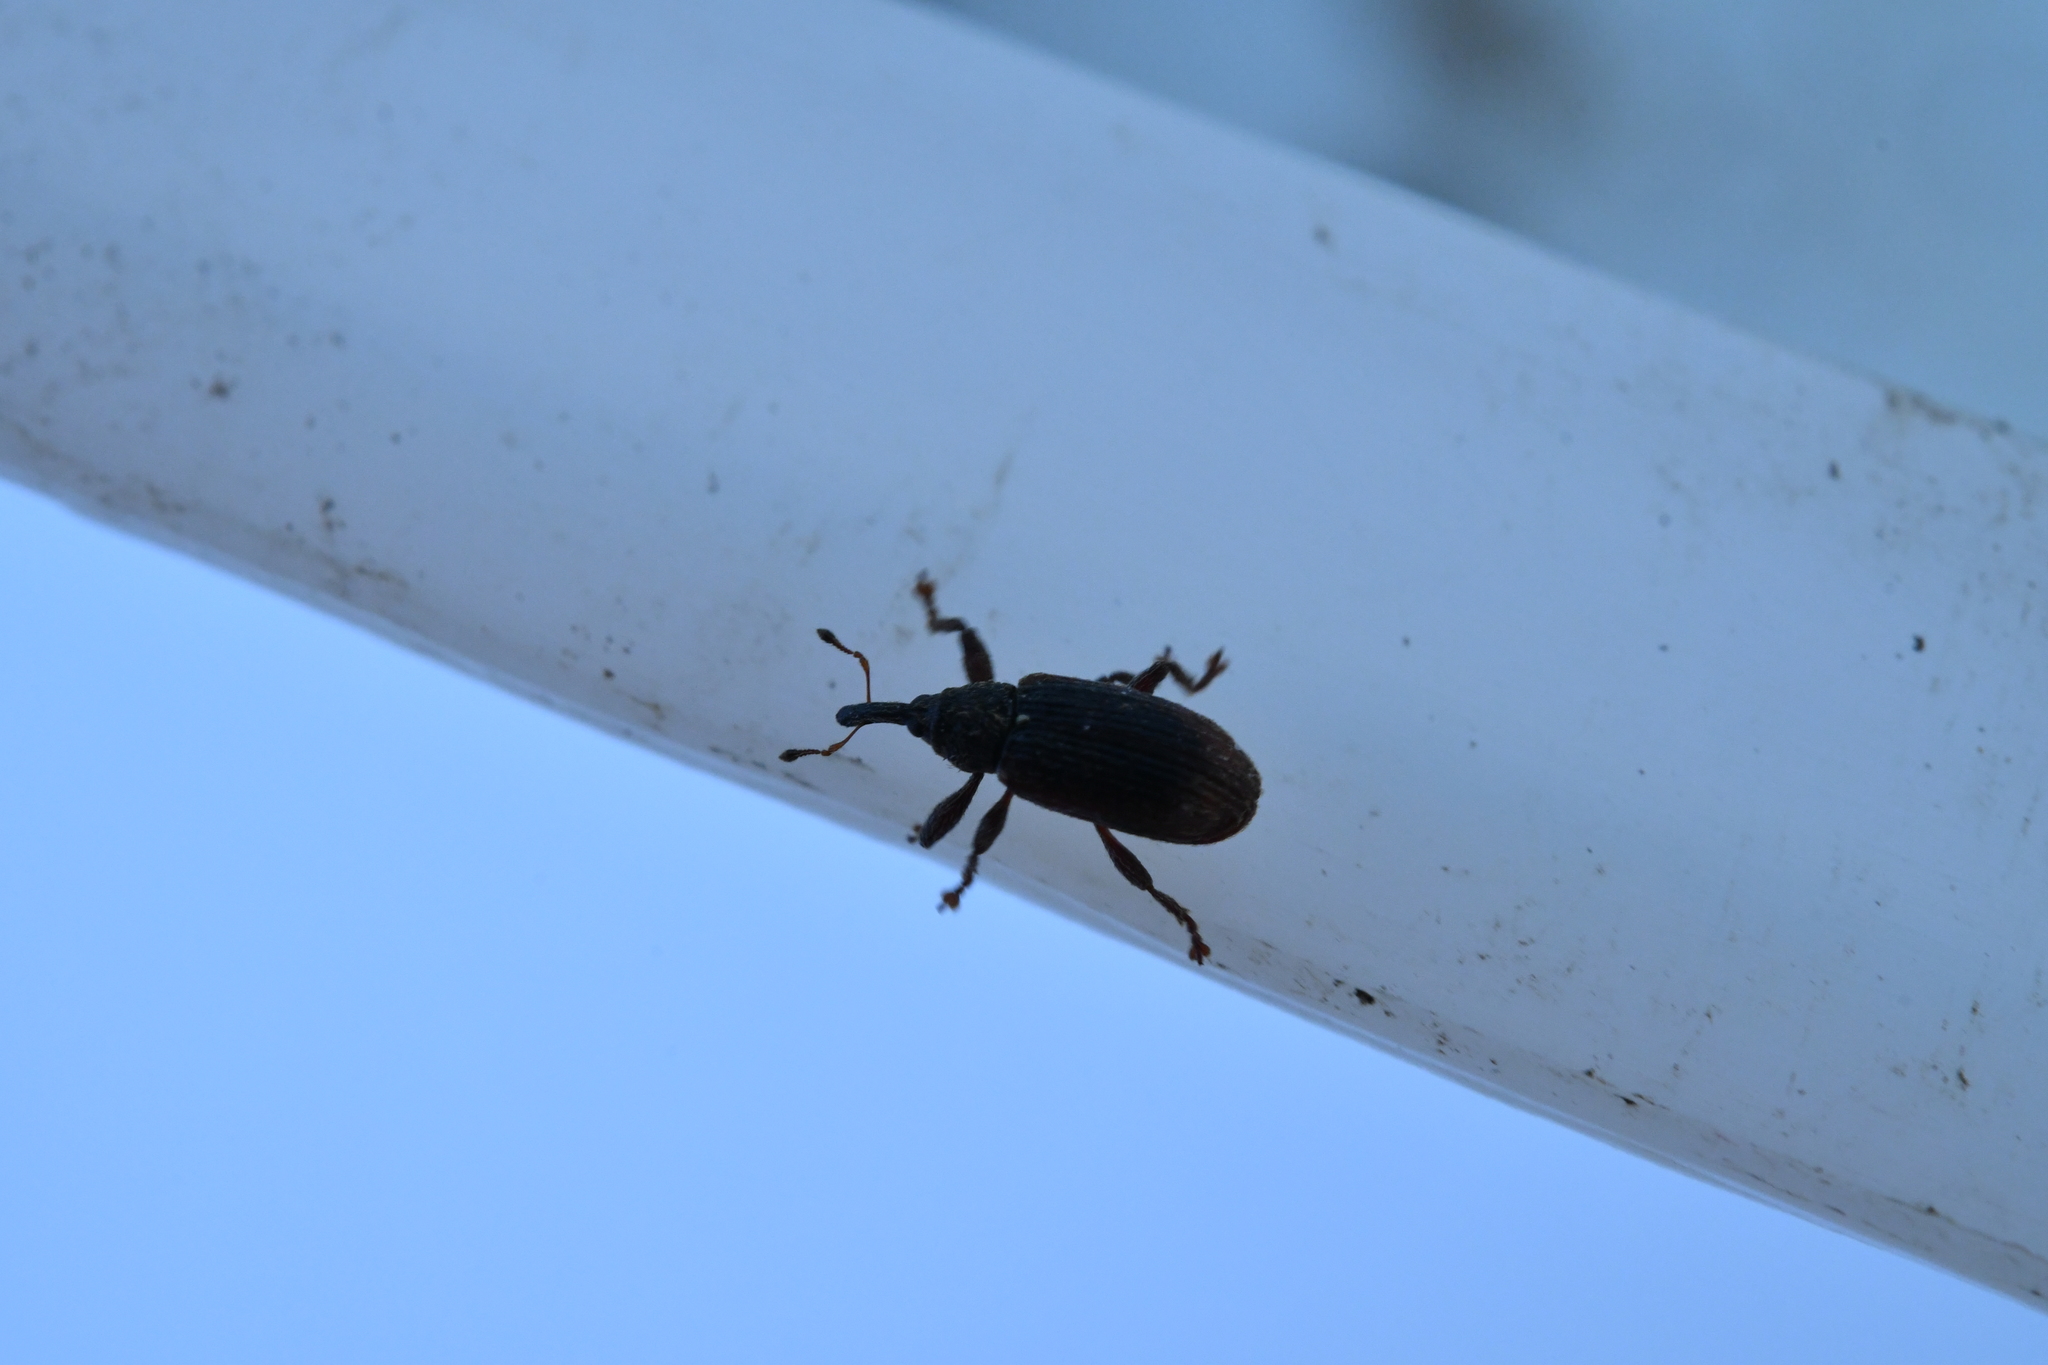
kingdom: Animalia
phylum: Arthropoda
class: Insecta
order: Coleoptera
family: Curculionidae
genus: Bradybatus
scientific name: Bradybatus kellneri
